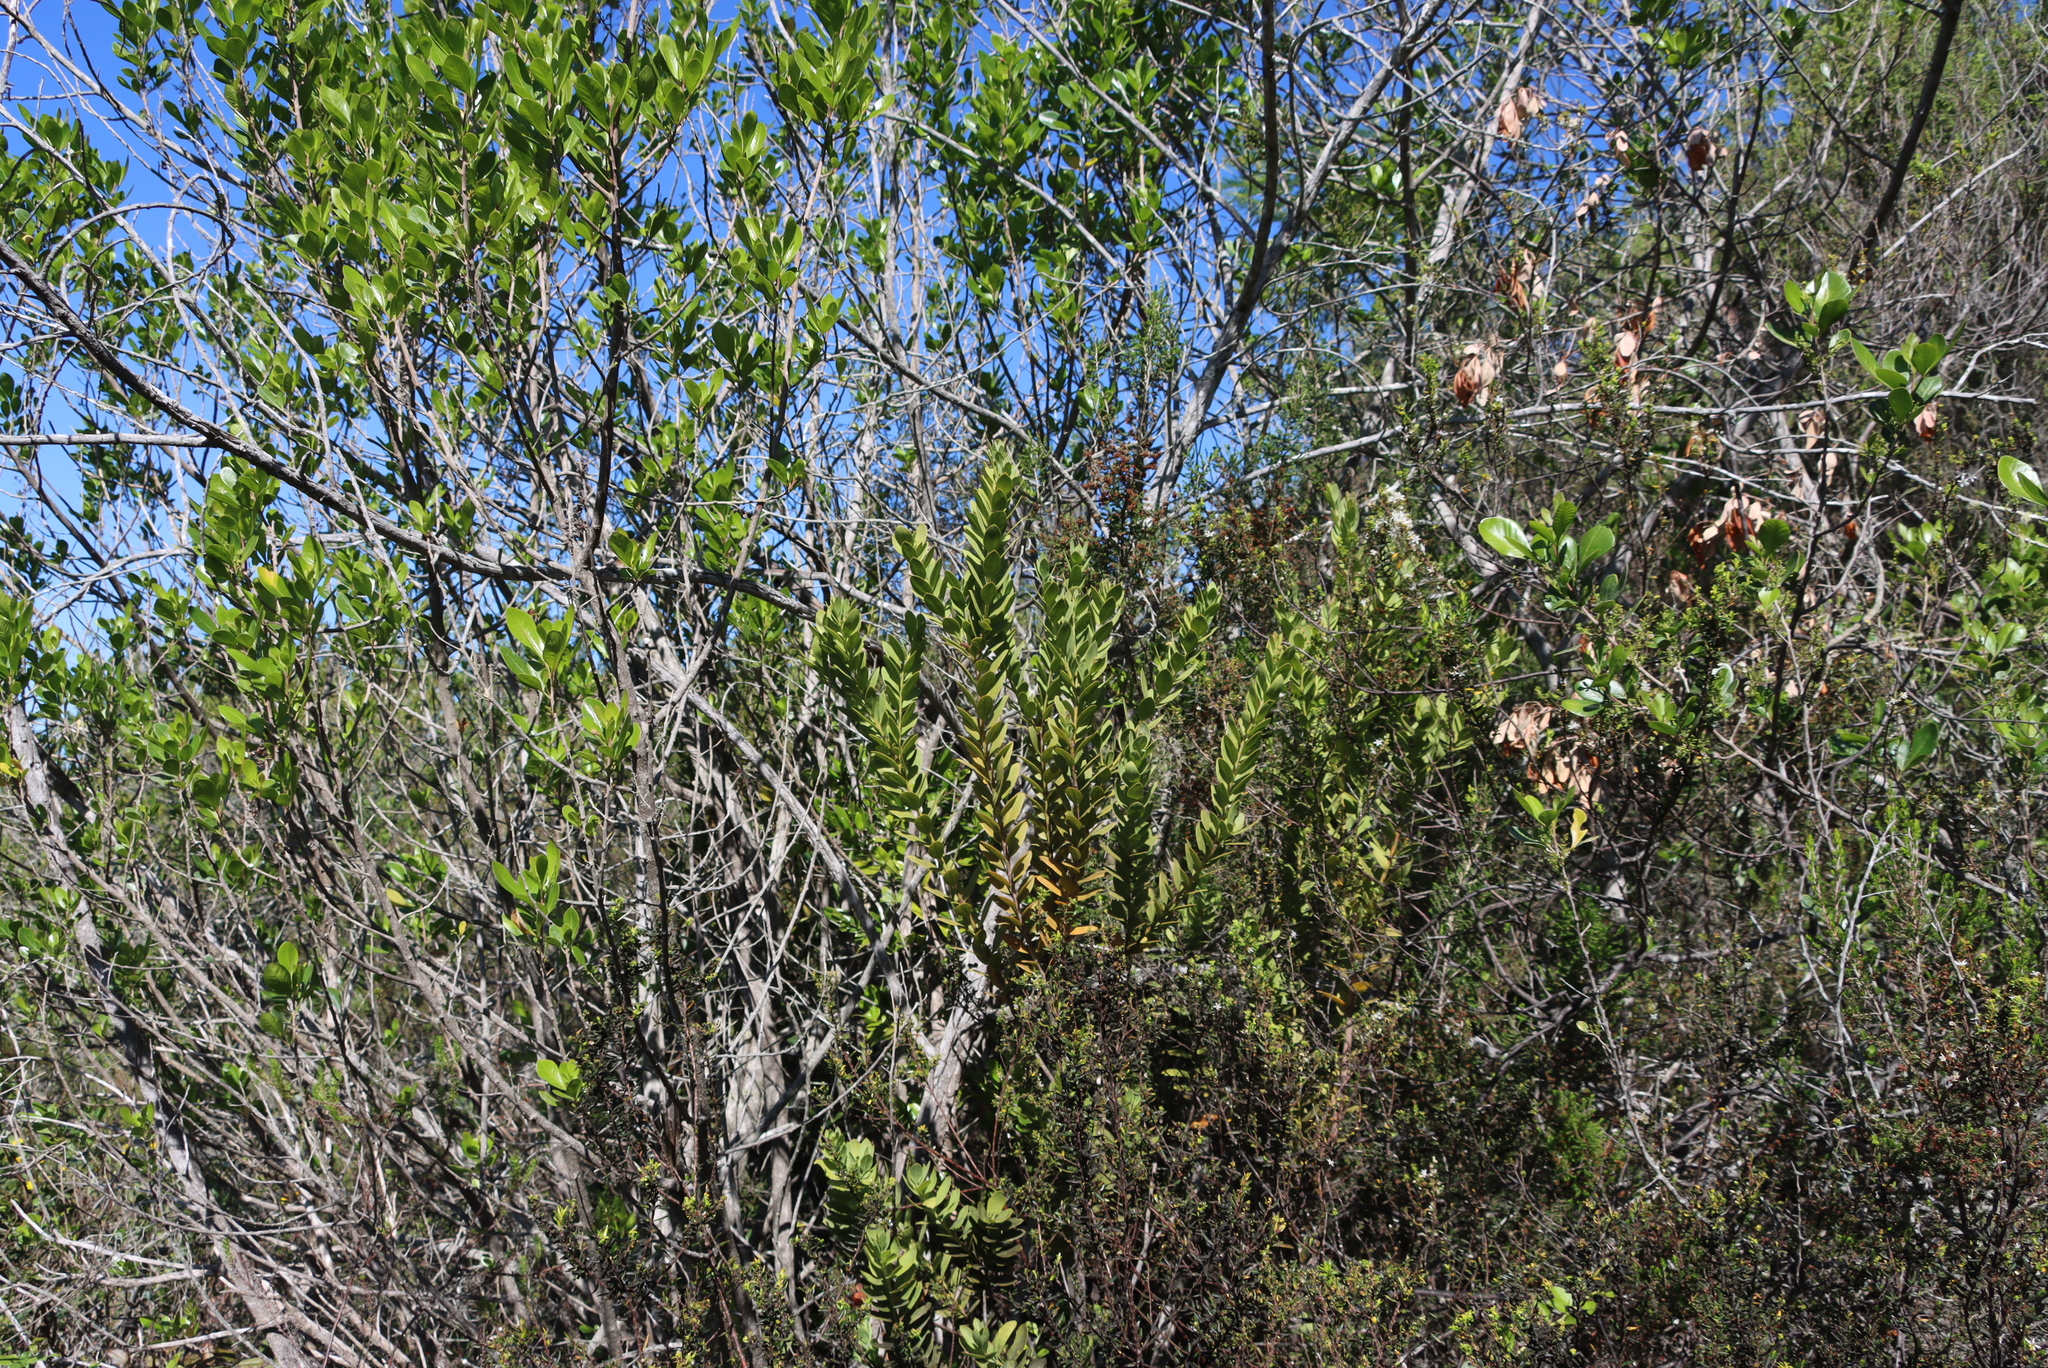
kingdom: Plantae
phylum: Tracheophyta
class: Magnoliopsida
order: Santalales
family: Santalaceae
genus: Osyris
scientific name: Osyris compressa
